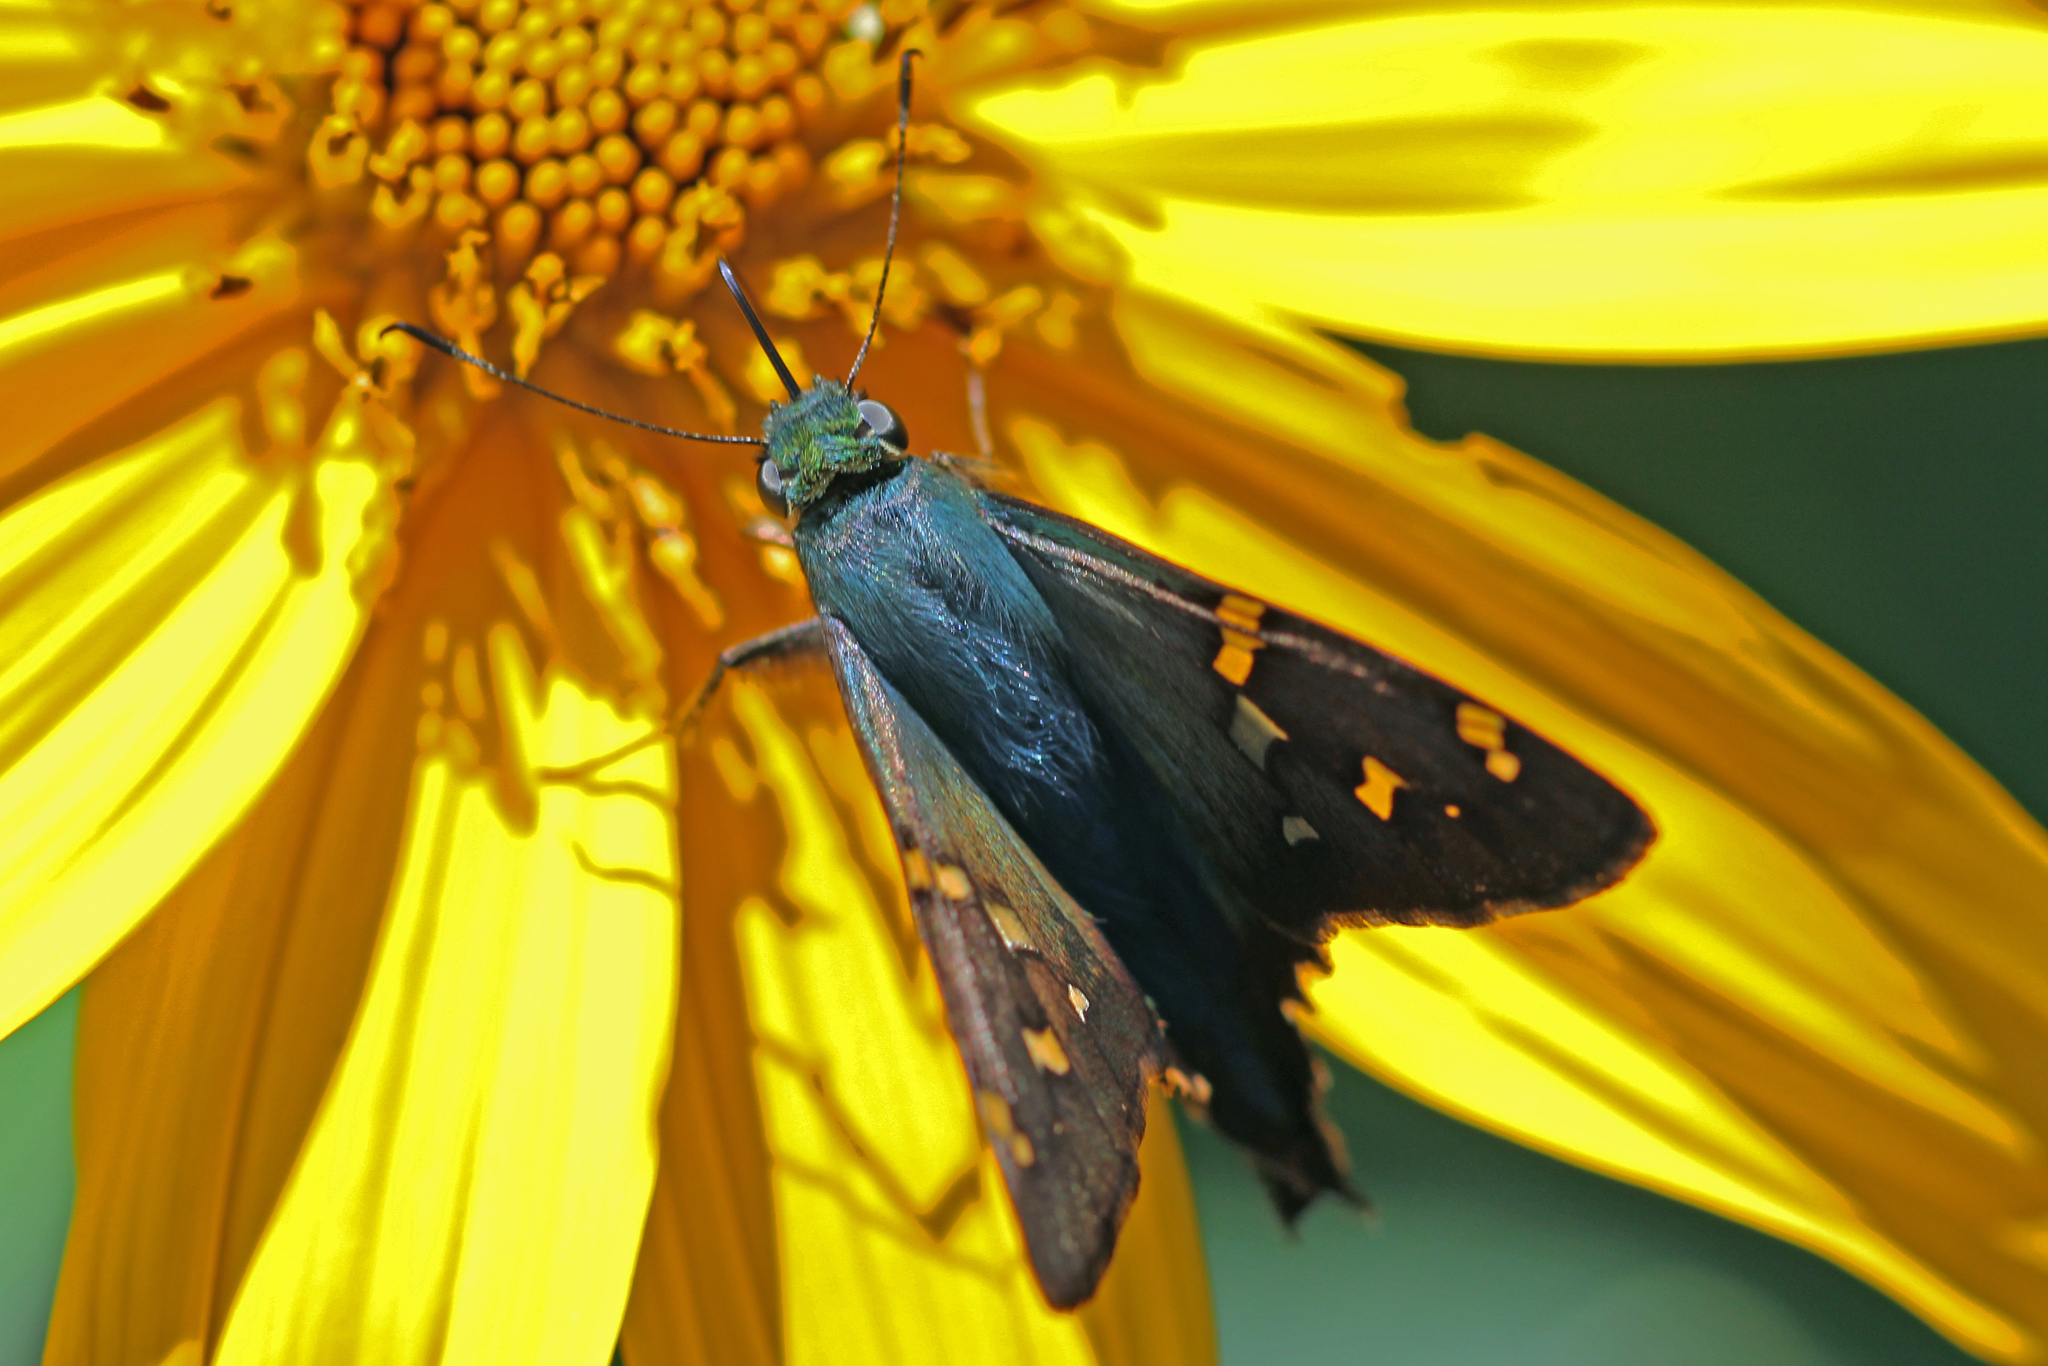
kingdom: Animalia
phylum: Arthropoda
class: Insecta
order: Lepidoptera
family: Hesperiidae
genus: Urbanus
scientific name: Urbanus proteus
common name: Long-tailed skipper
